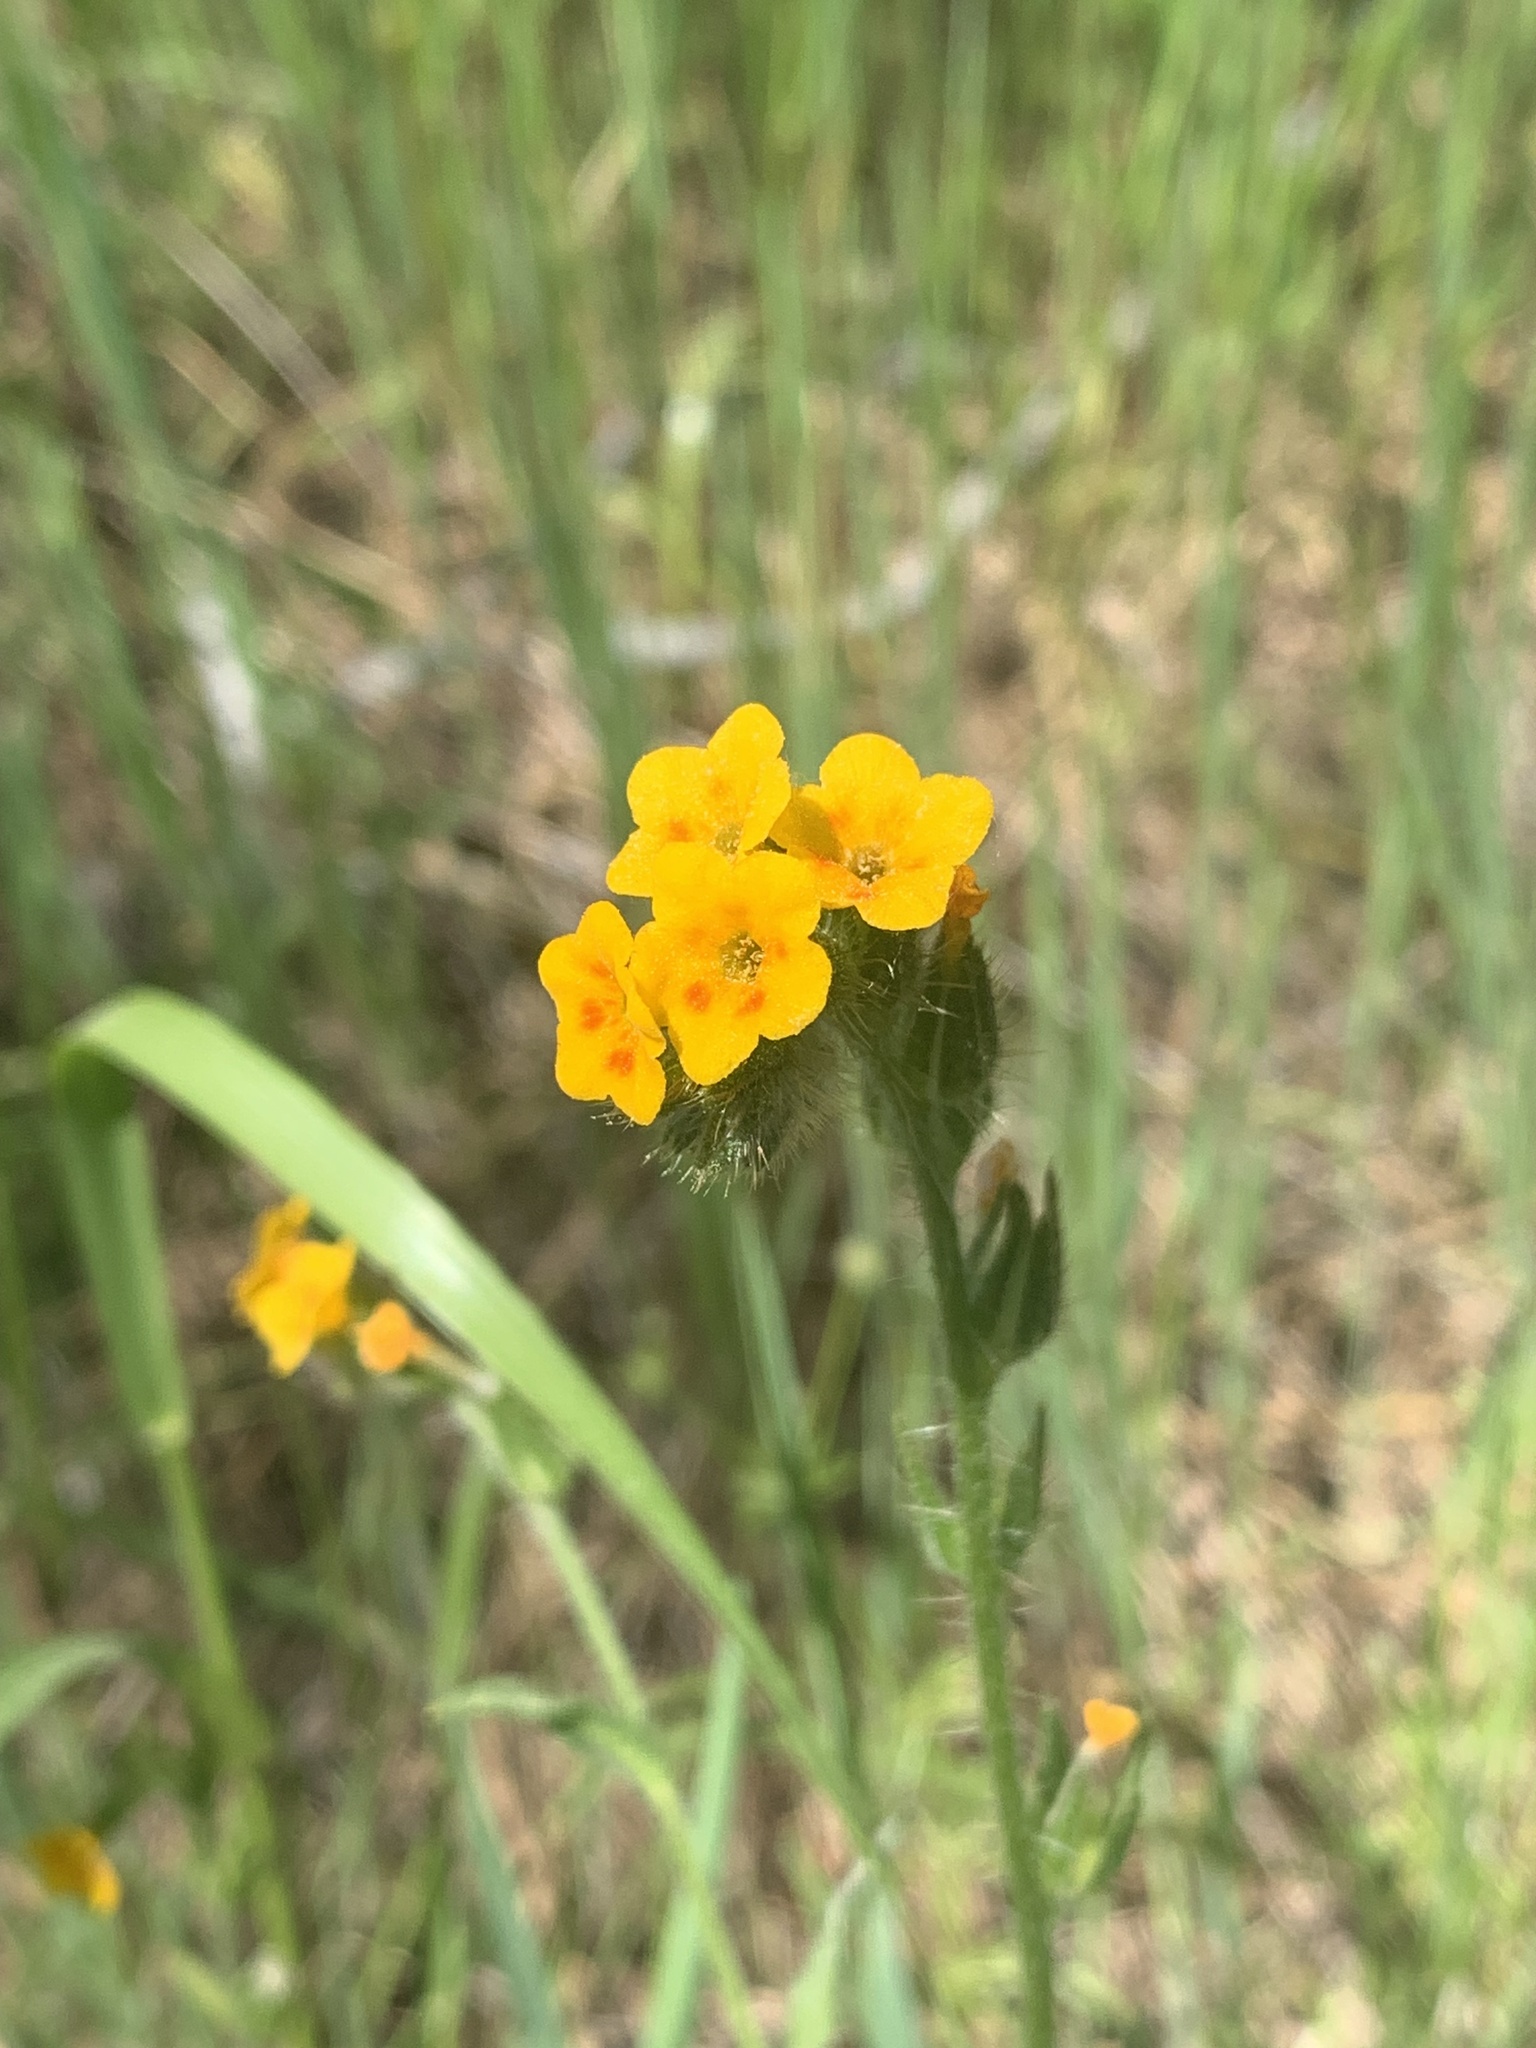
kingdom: Plantae
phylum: Tracheophyta
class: Magnoliopsida
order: Boraginales
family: Boraginaceae
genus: Amsinckia
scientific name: Amsinckia menziesii
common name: Menzies' fiddleneck
